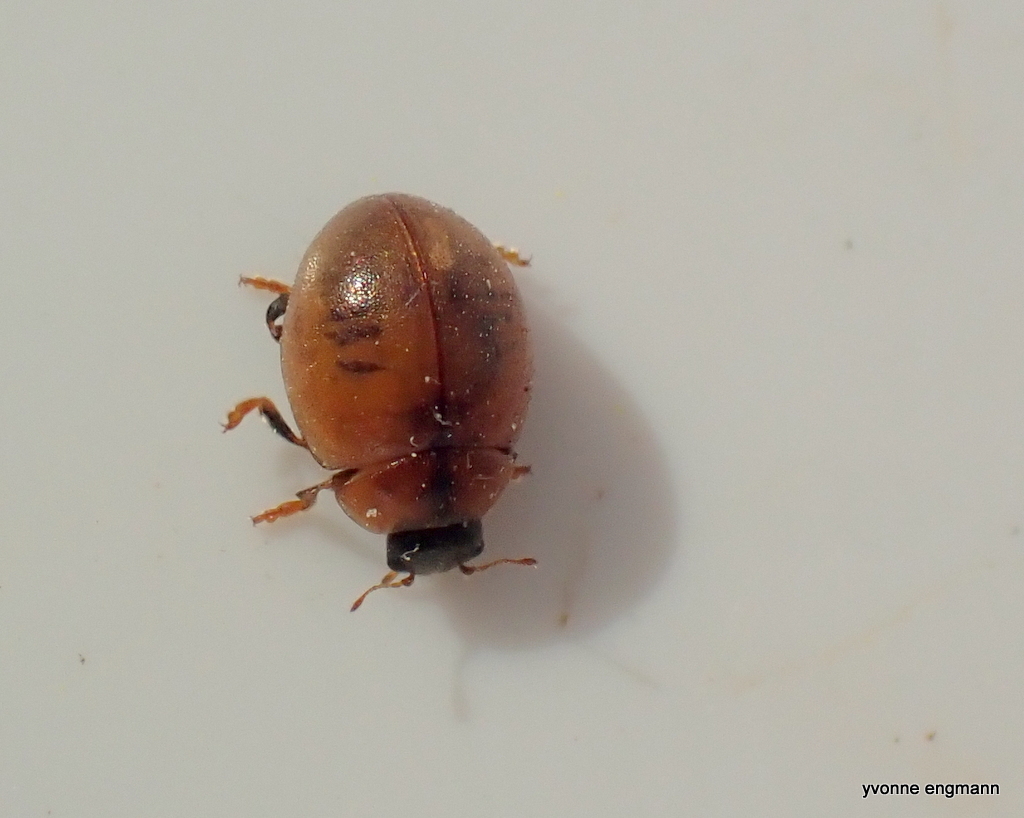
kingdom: Animalia
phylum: Arthropoda
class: Insecta
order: Coleoptera
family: Coccinellidae
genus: Cynegetis
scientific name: Cynegetis impunctata
